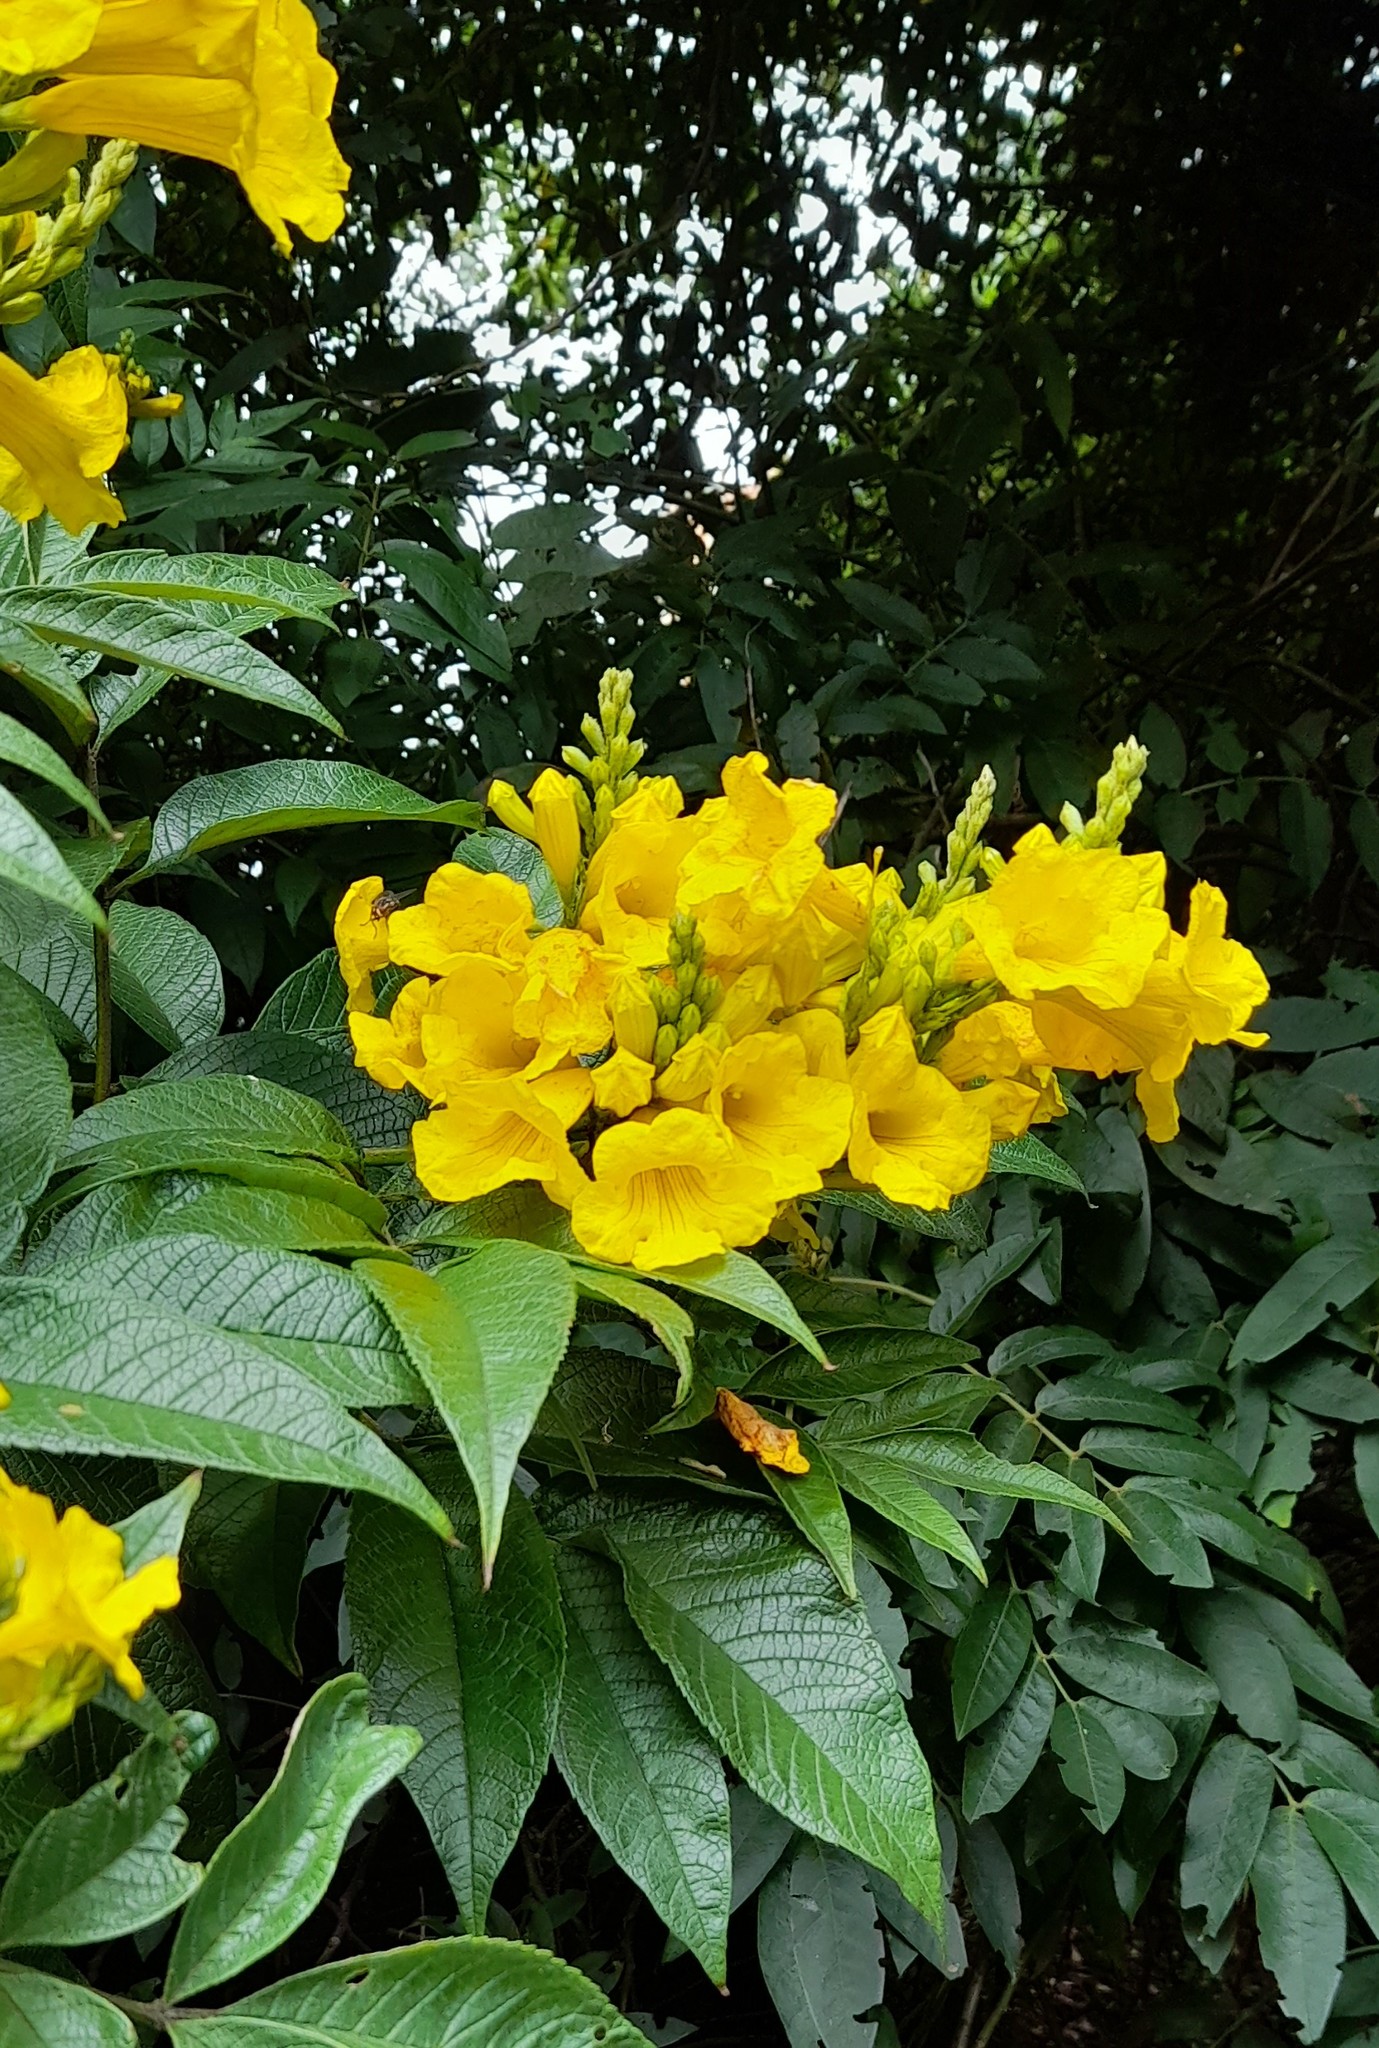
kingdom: Plantae
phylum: Tracheophyta
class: Magnoliopsida
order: Lamiales
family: Bignoniaceae
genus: Tecoma
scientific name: Tecoma stans
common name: Yellow trumpetbush
